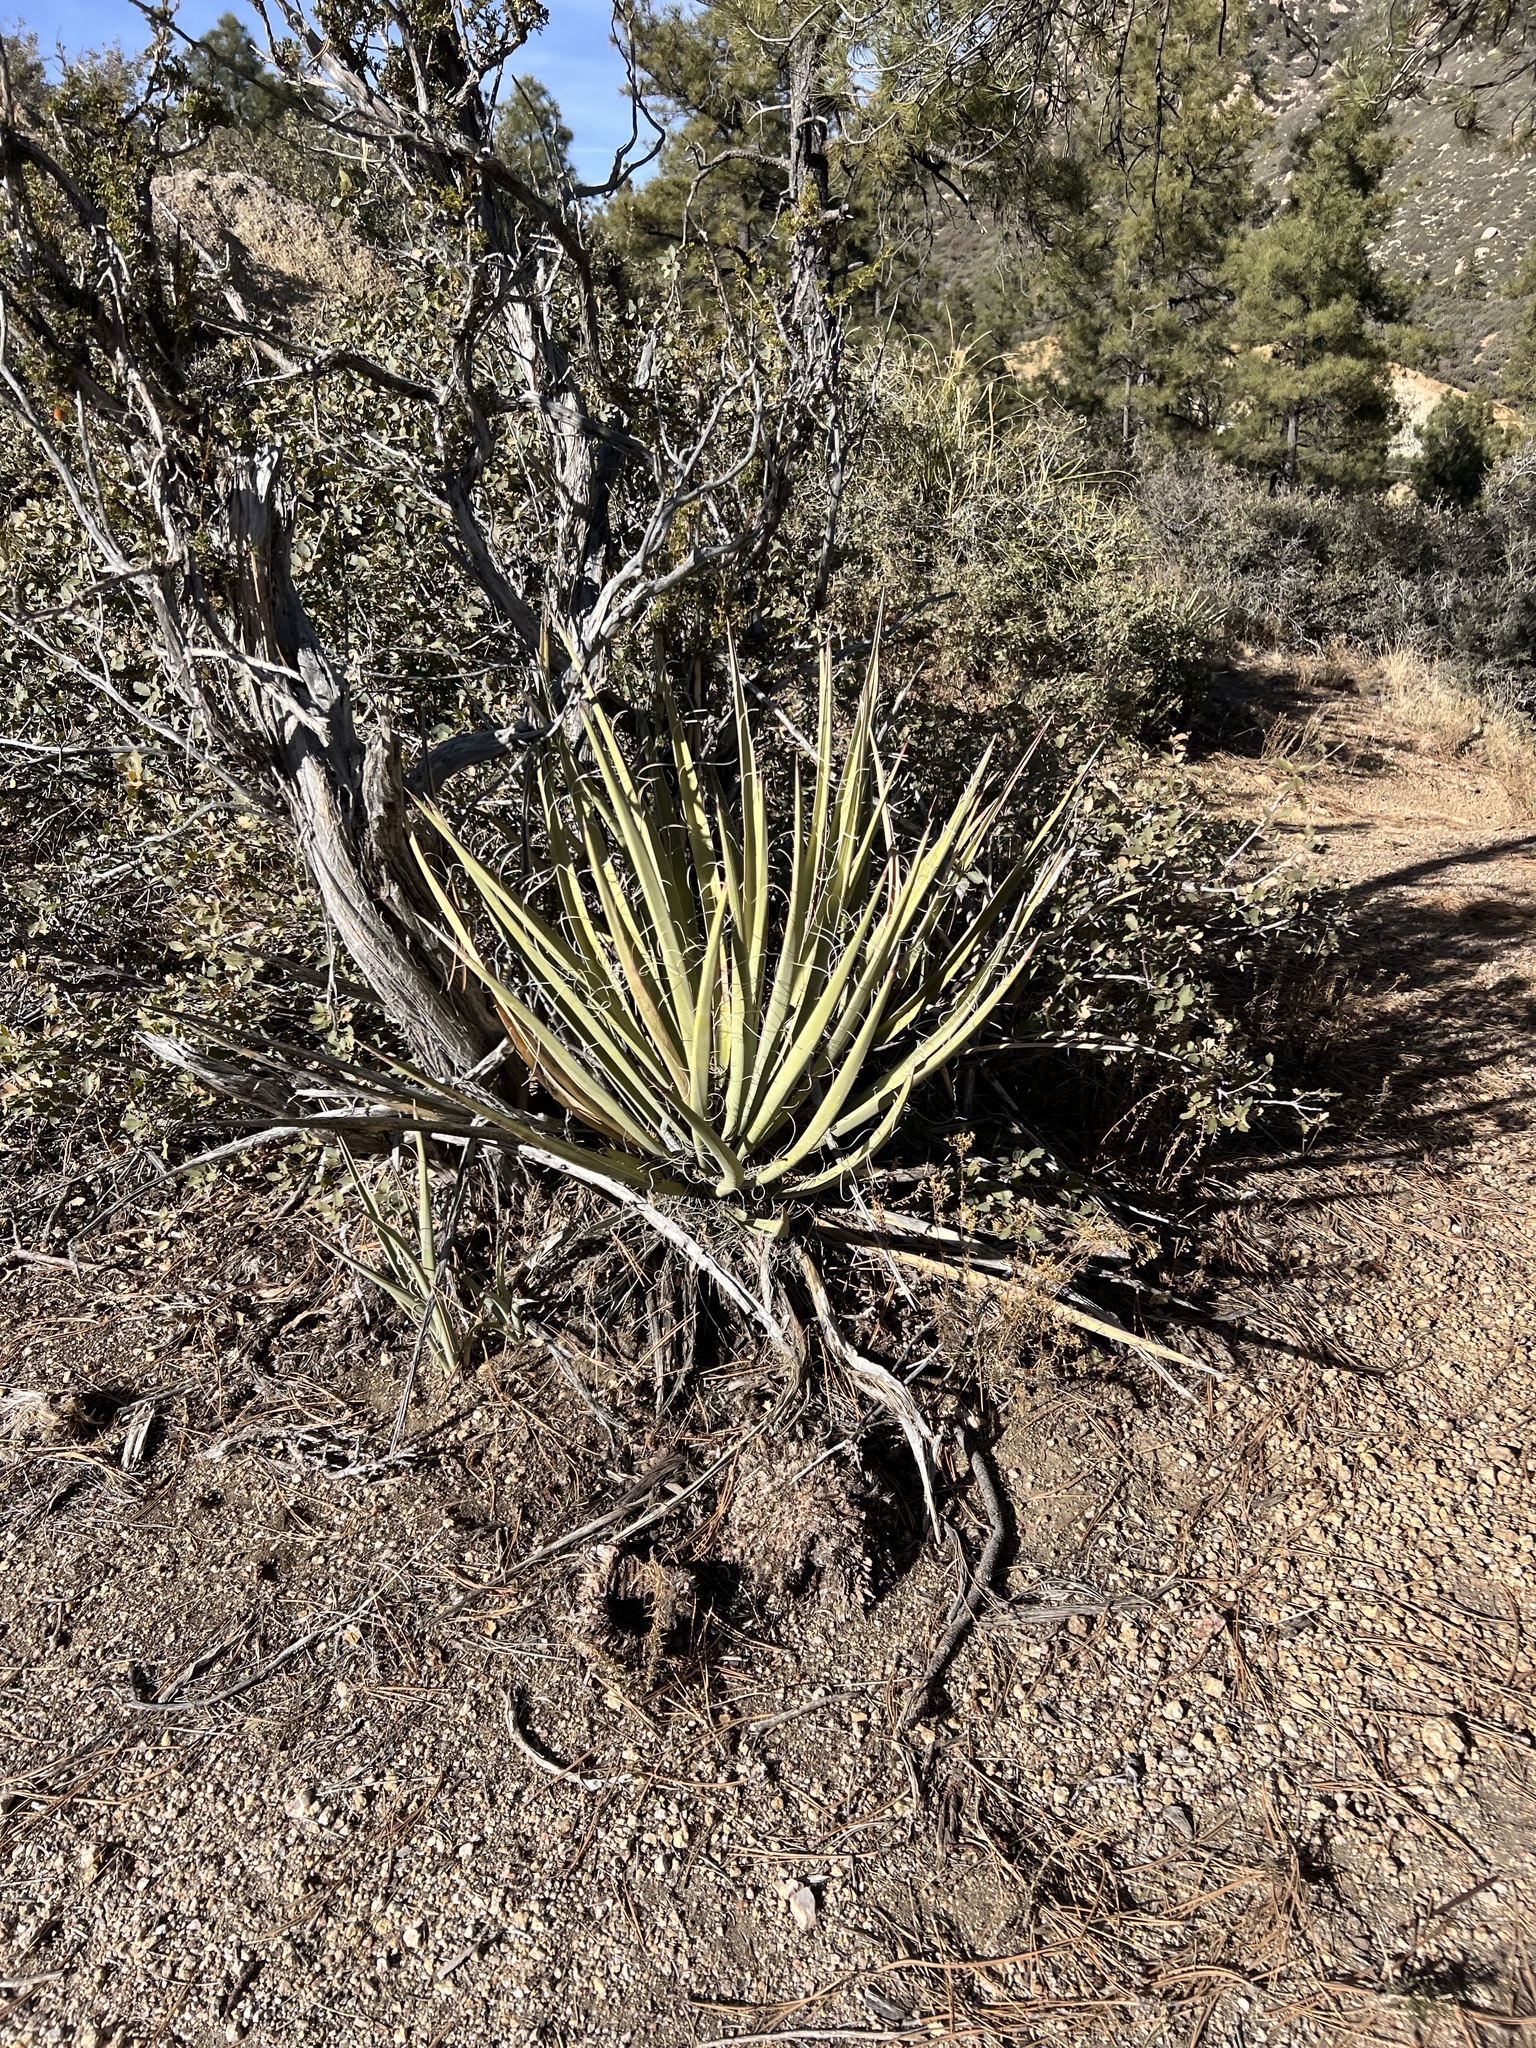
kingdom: Plantae
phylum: Tracheophyta
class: Liliopsida
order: Asparagales
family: Asparagaceae
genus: Yucca
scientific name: Yucca baccata
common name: Banana yucca
